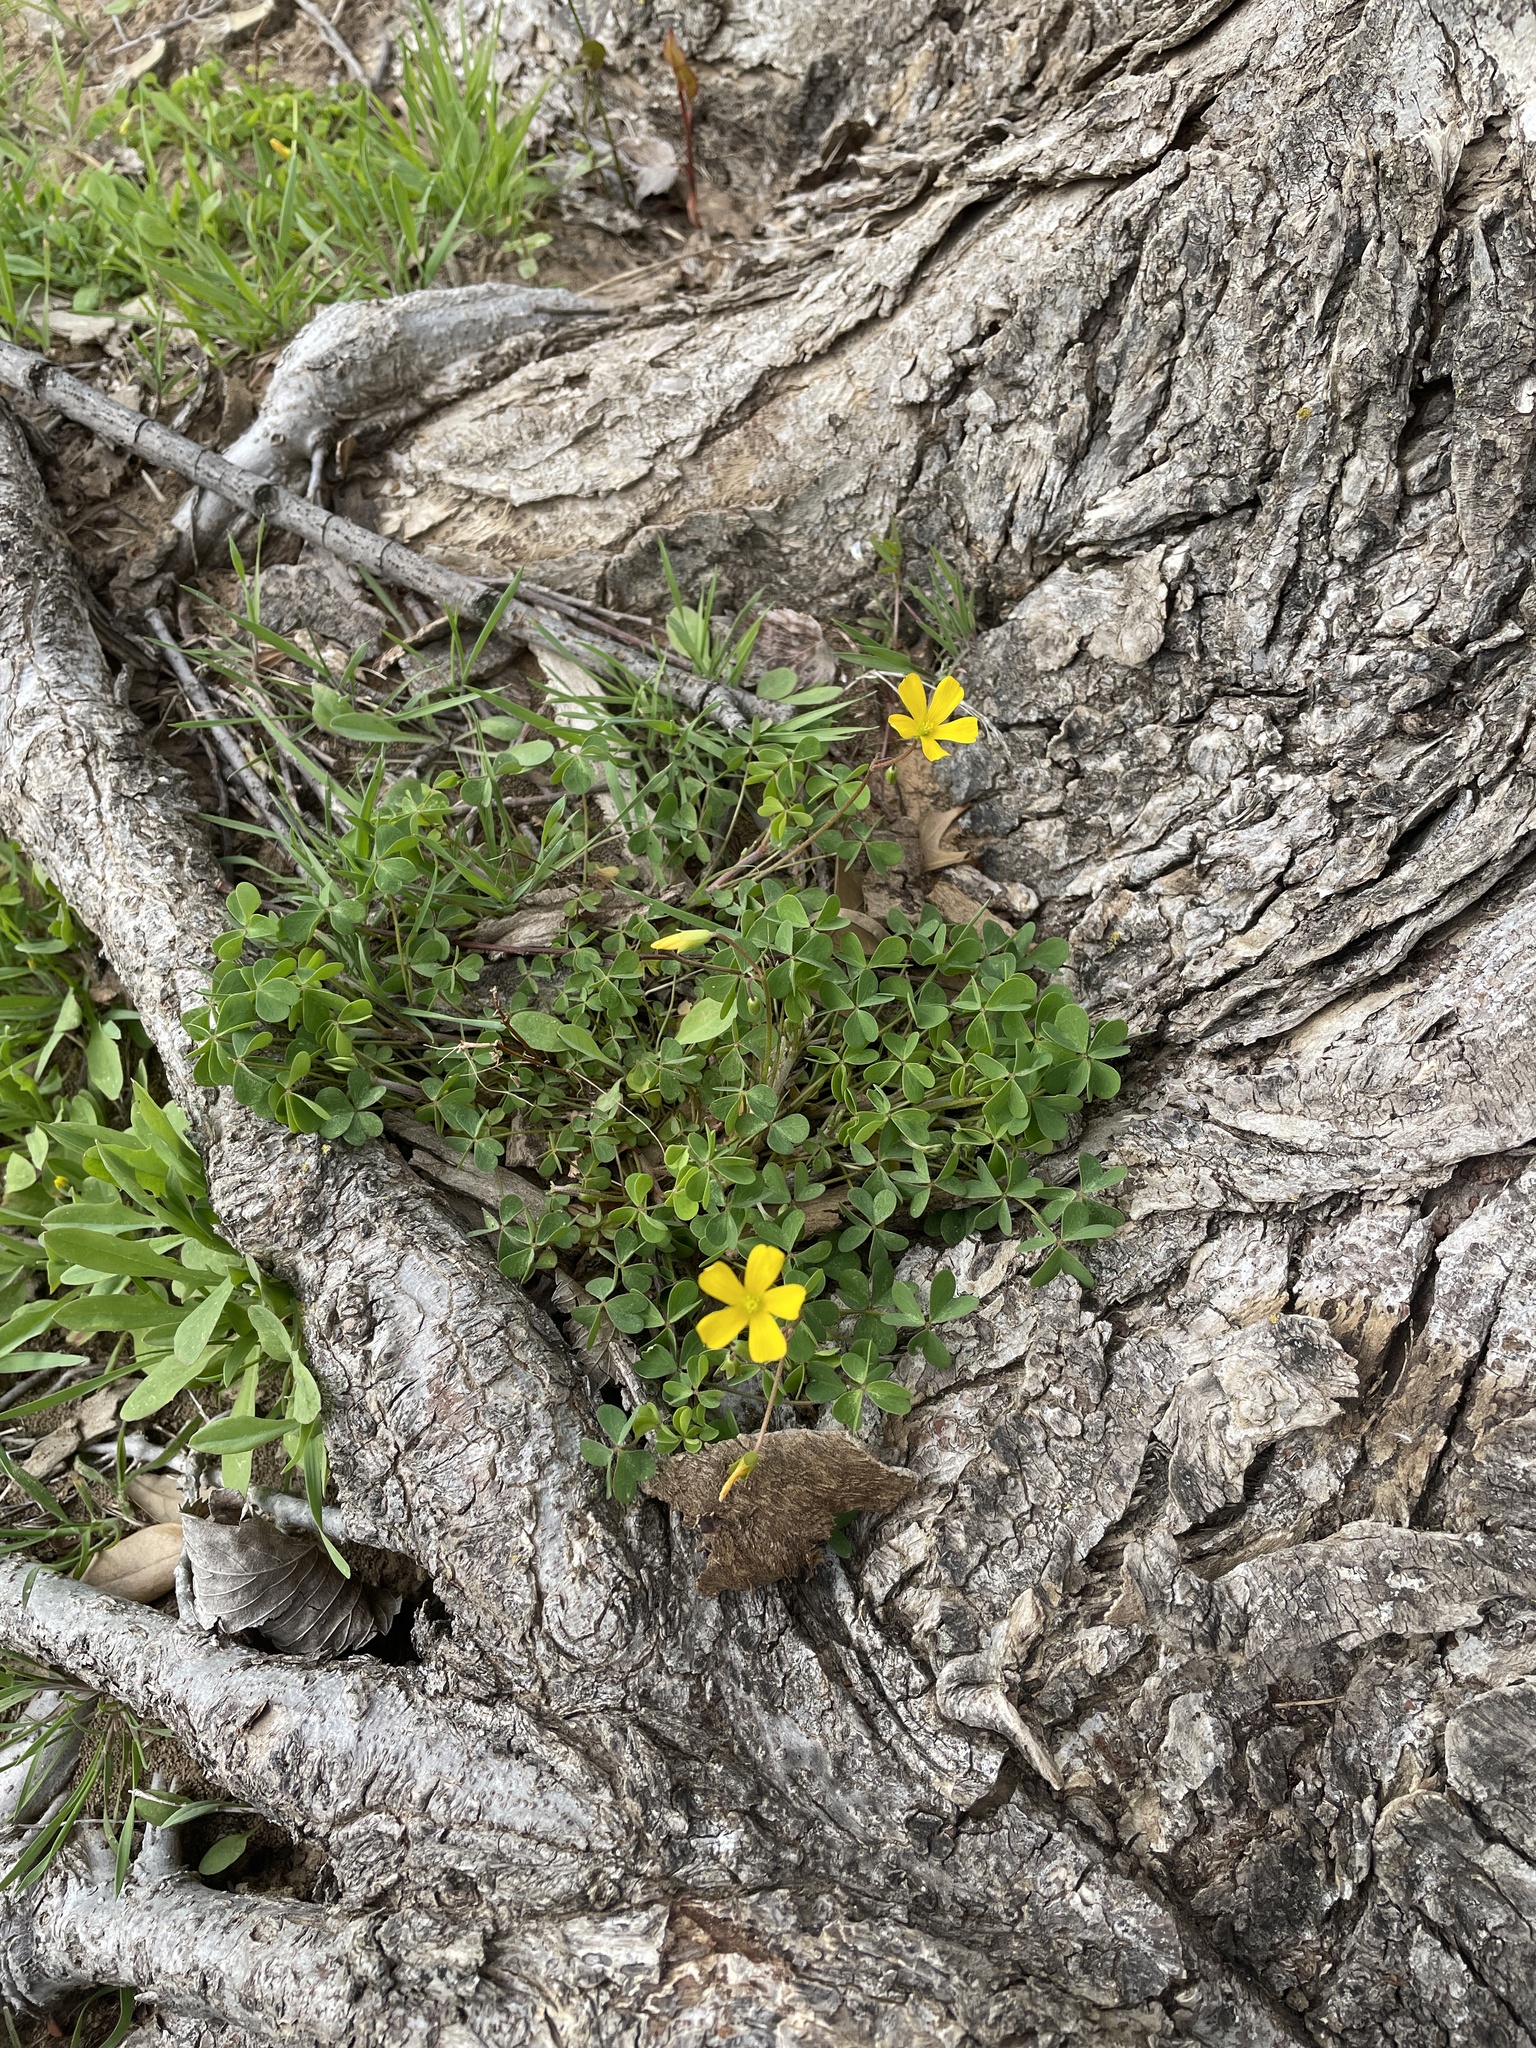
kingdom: Plantae
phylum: Tracheophyta
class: Magnoliopsida
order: Oxalidales
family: Oxalidaceae
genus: Oxalis
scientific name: Oxalis dillenii
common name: Sussex yellow-sorrel
